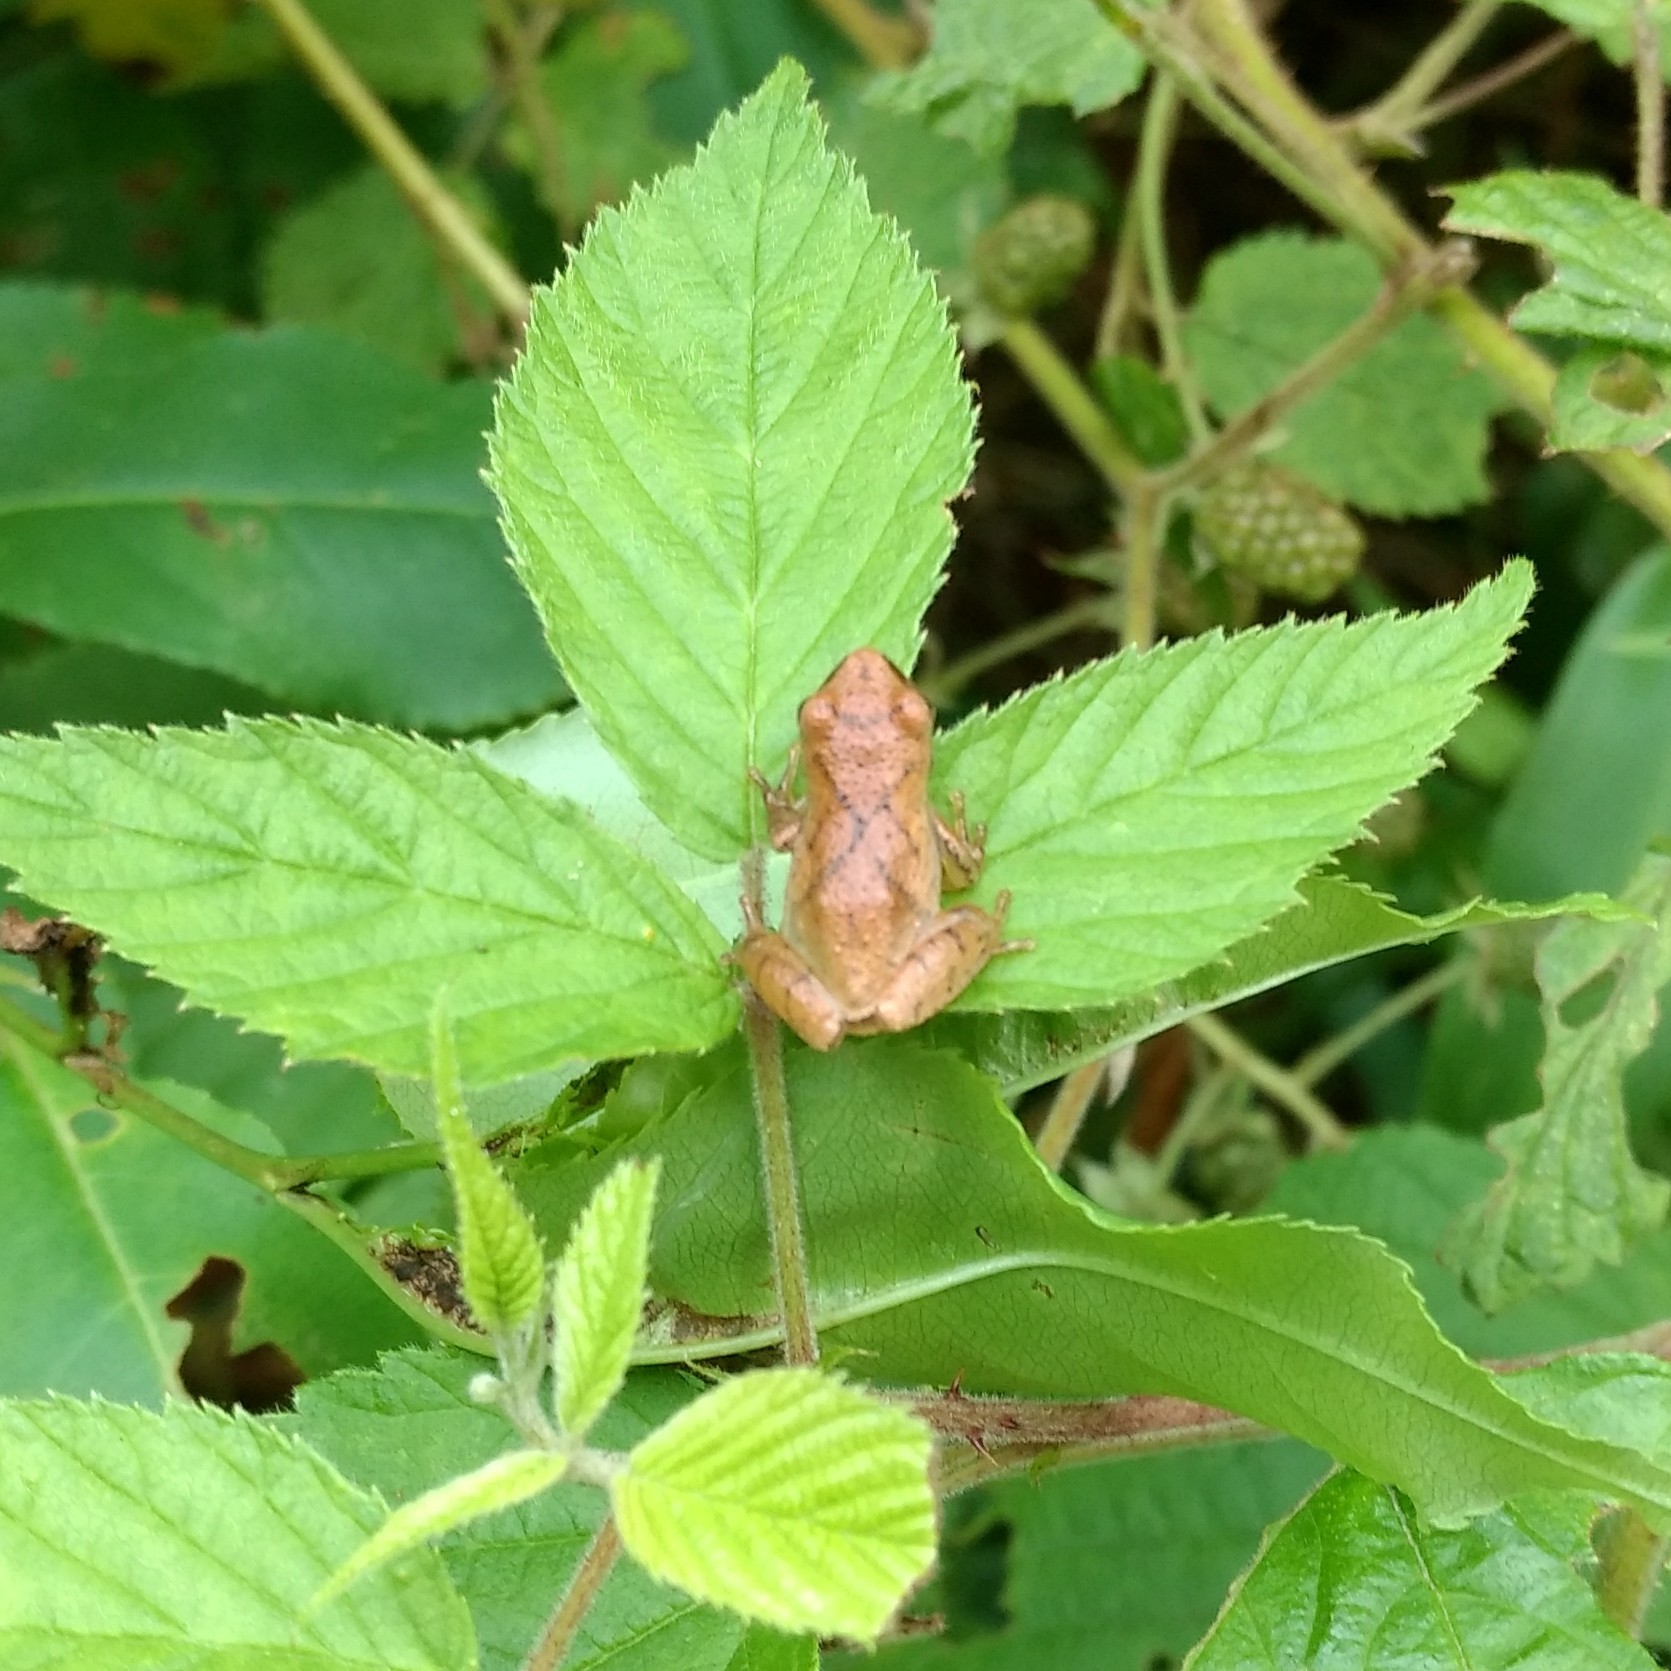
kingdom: Animalia
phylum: Chordata
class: Amphibia
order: Anura
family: Hylidae
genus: Pseudacris
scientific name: Pseudacris crucifer
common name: Spring peeper
